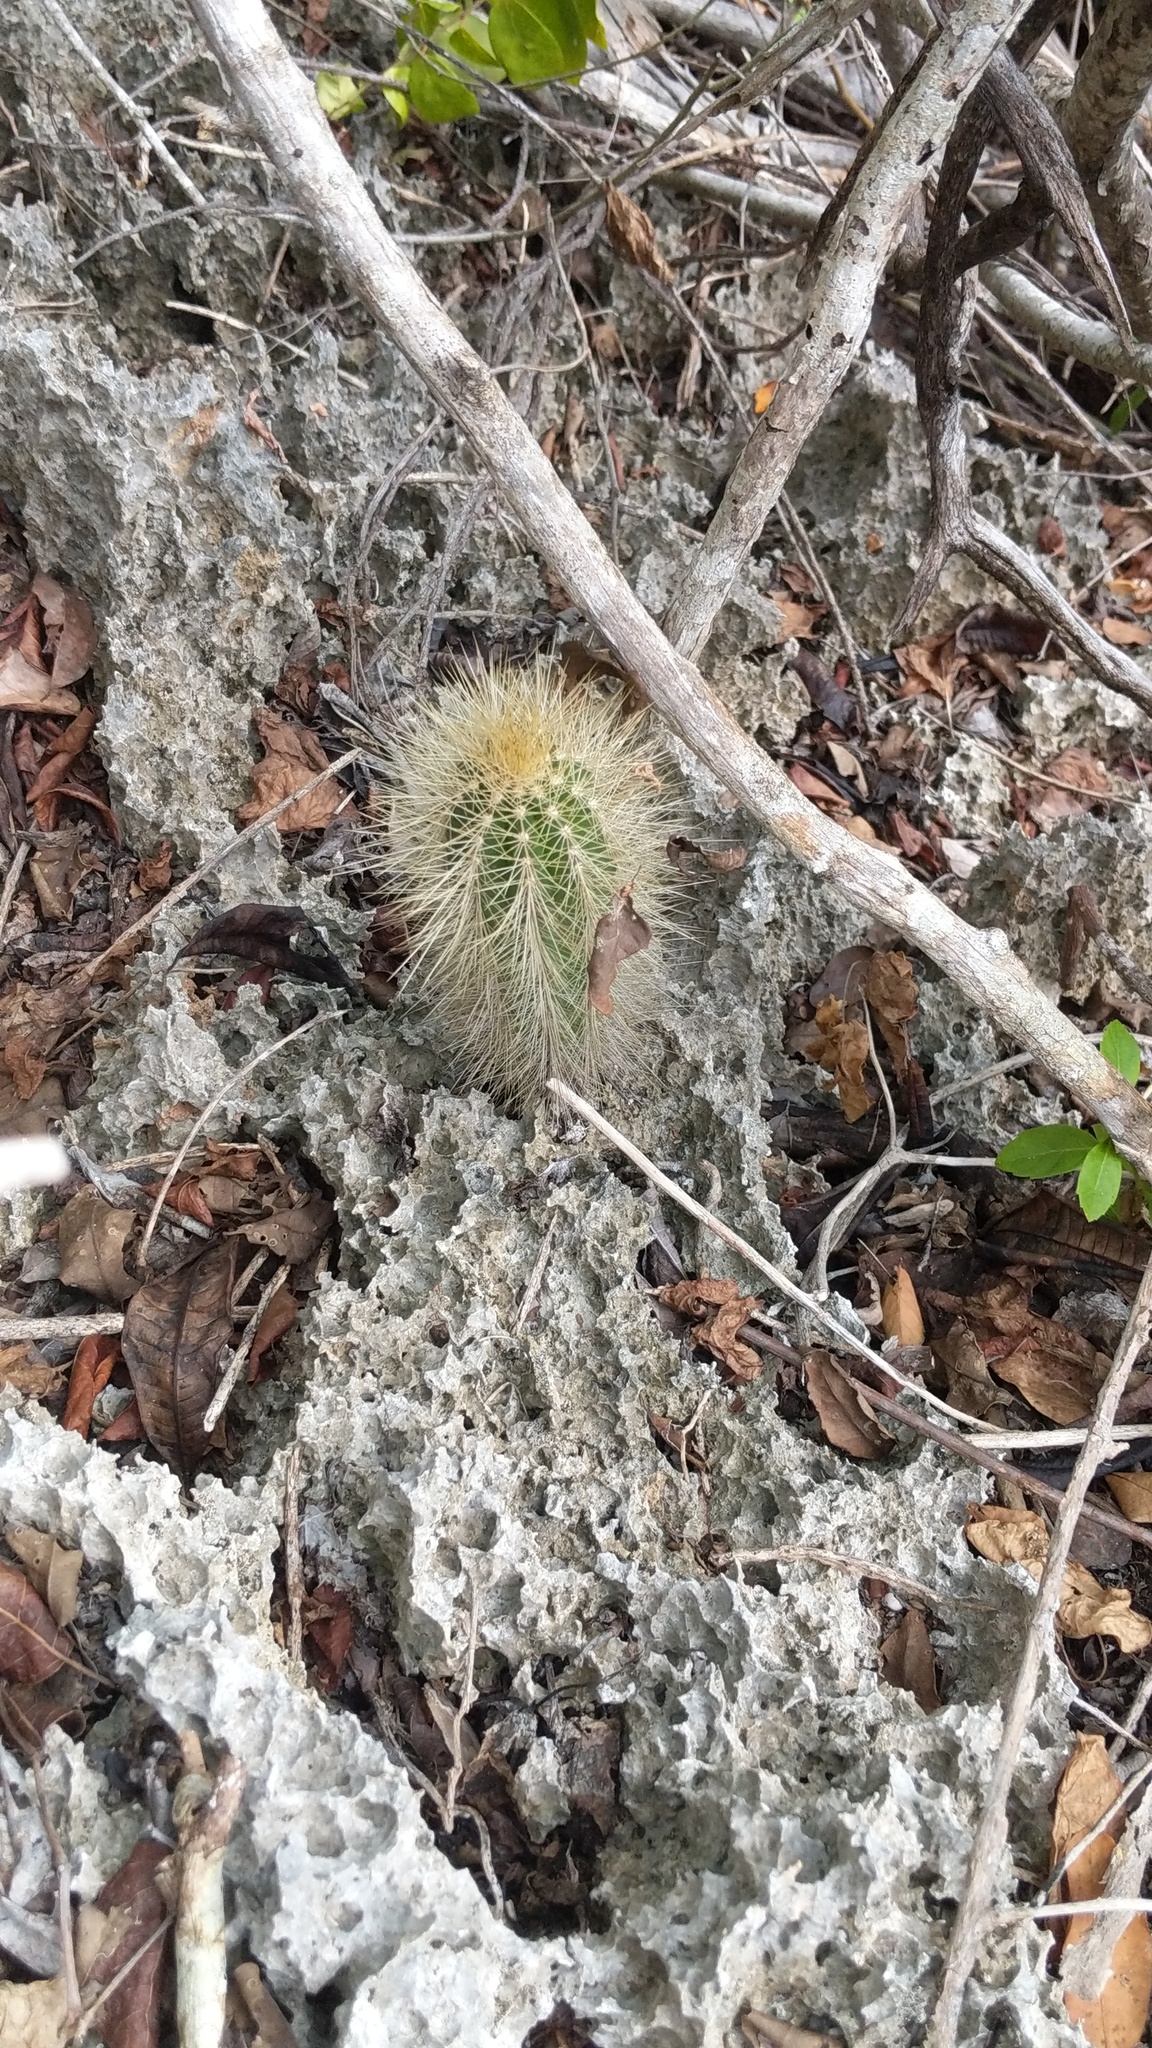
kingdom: Plantae
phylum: Tracheophyta
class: Magnoliopsida
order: Caryophyllales
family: Cactaceae
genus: Pilosocereus
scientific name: Pilosocereus jamaicensis
